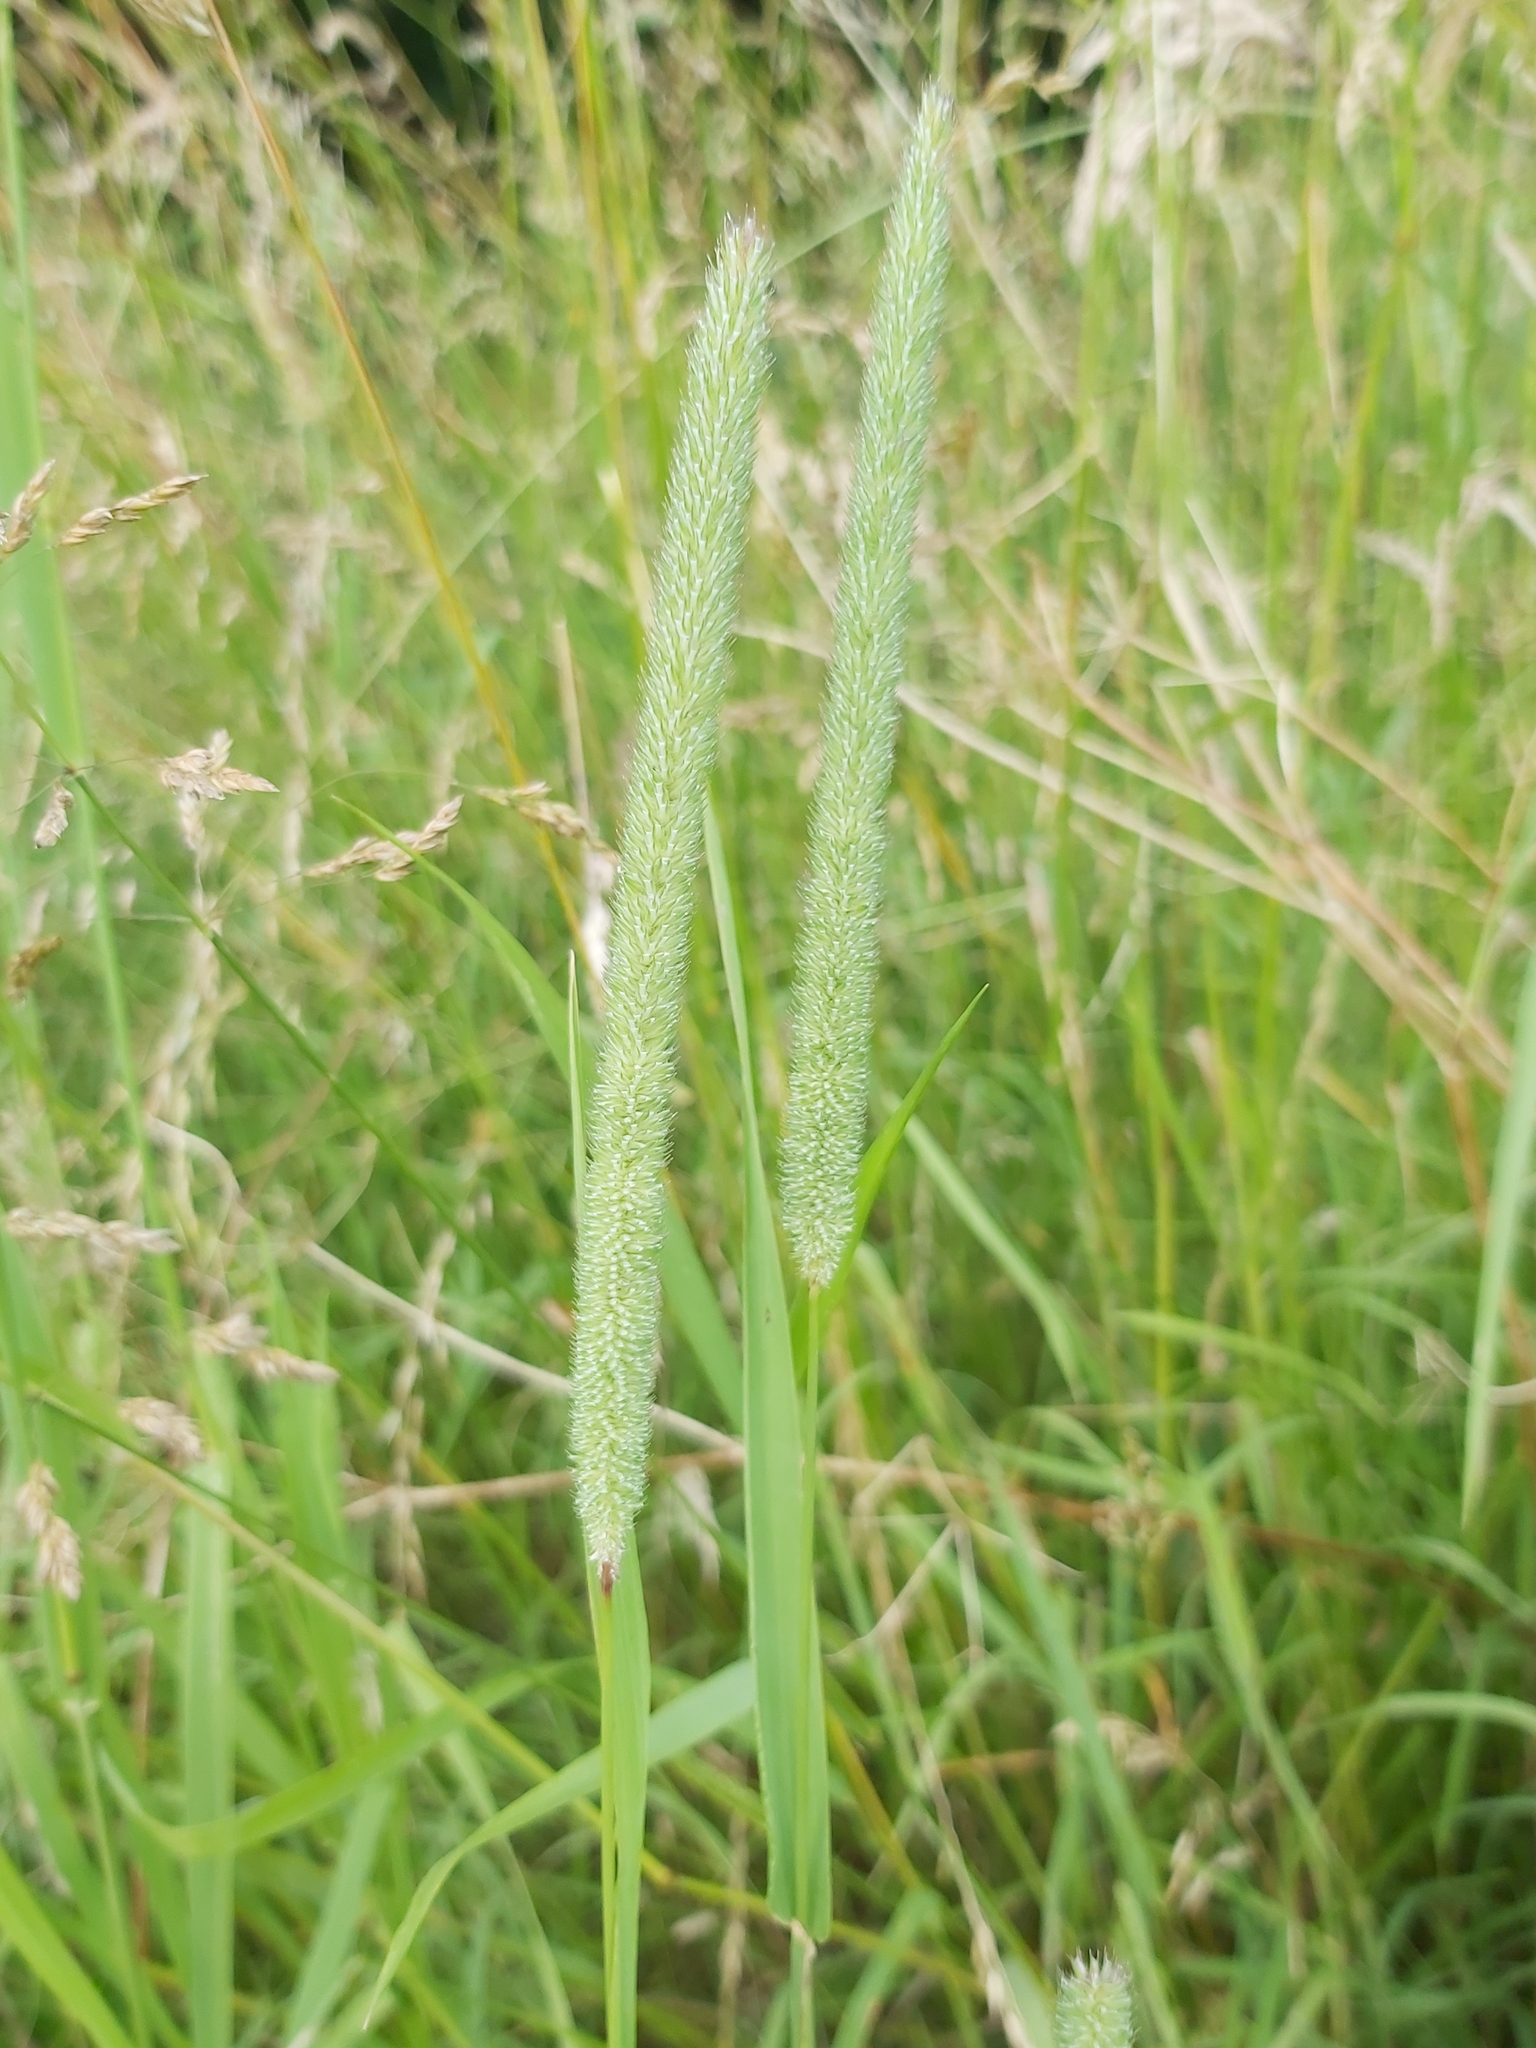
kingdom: Plantae
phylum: Tracheophyta
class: Liliopsida
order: Poales
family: Poaceae
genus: Phleum
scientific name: Phleum pratense
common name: Timothy grass
